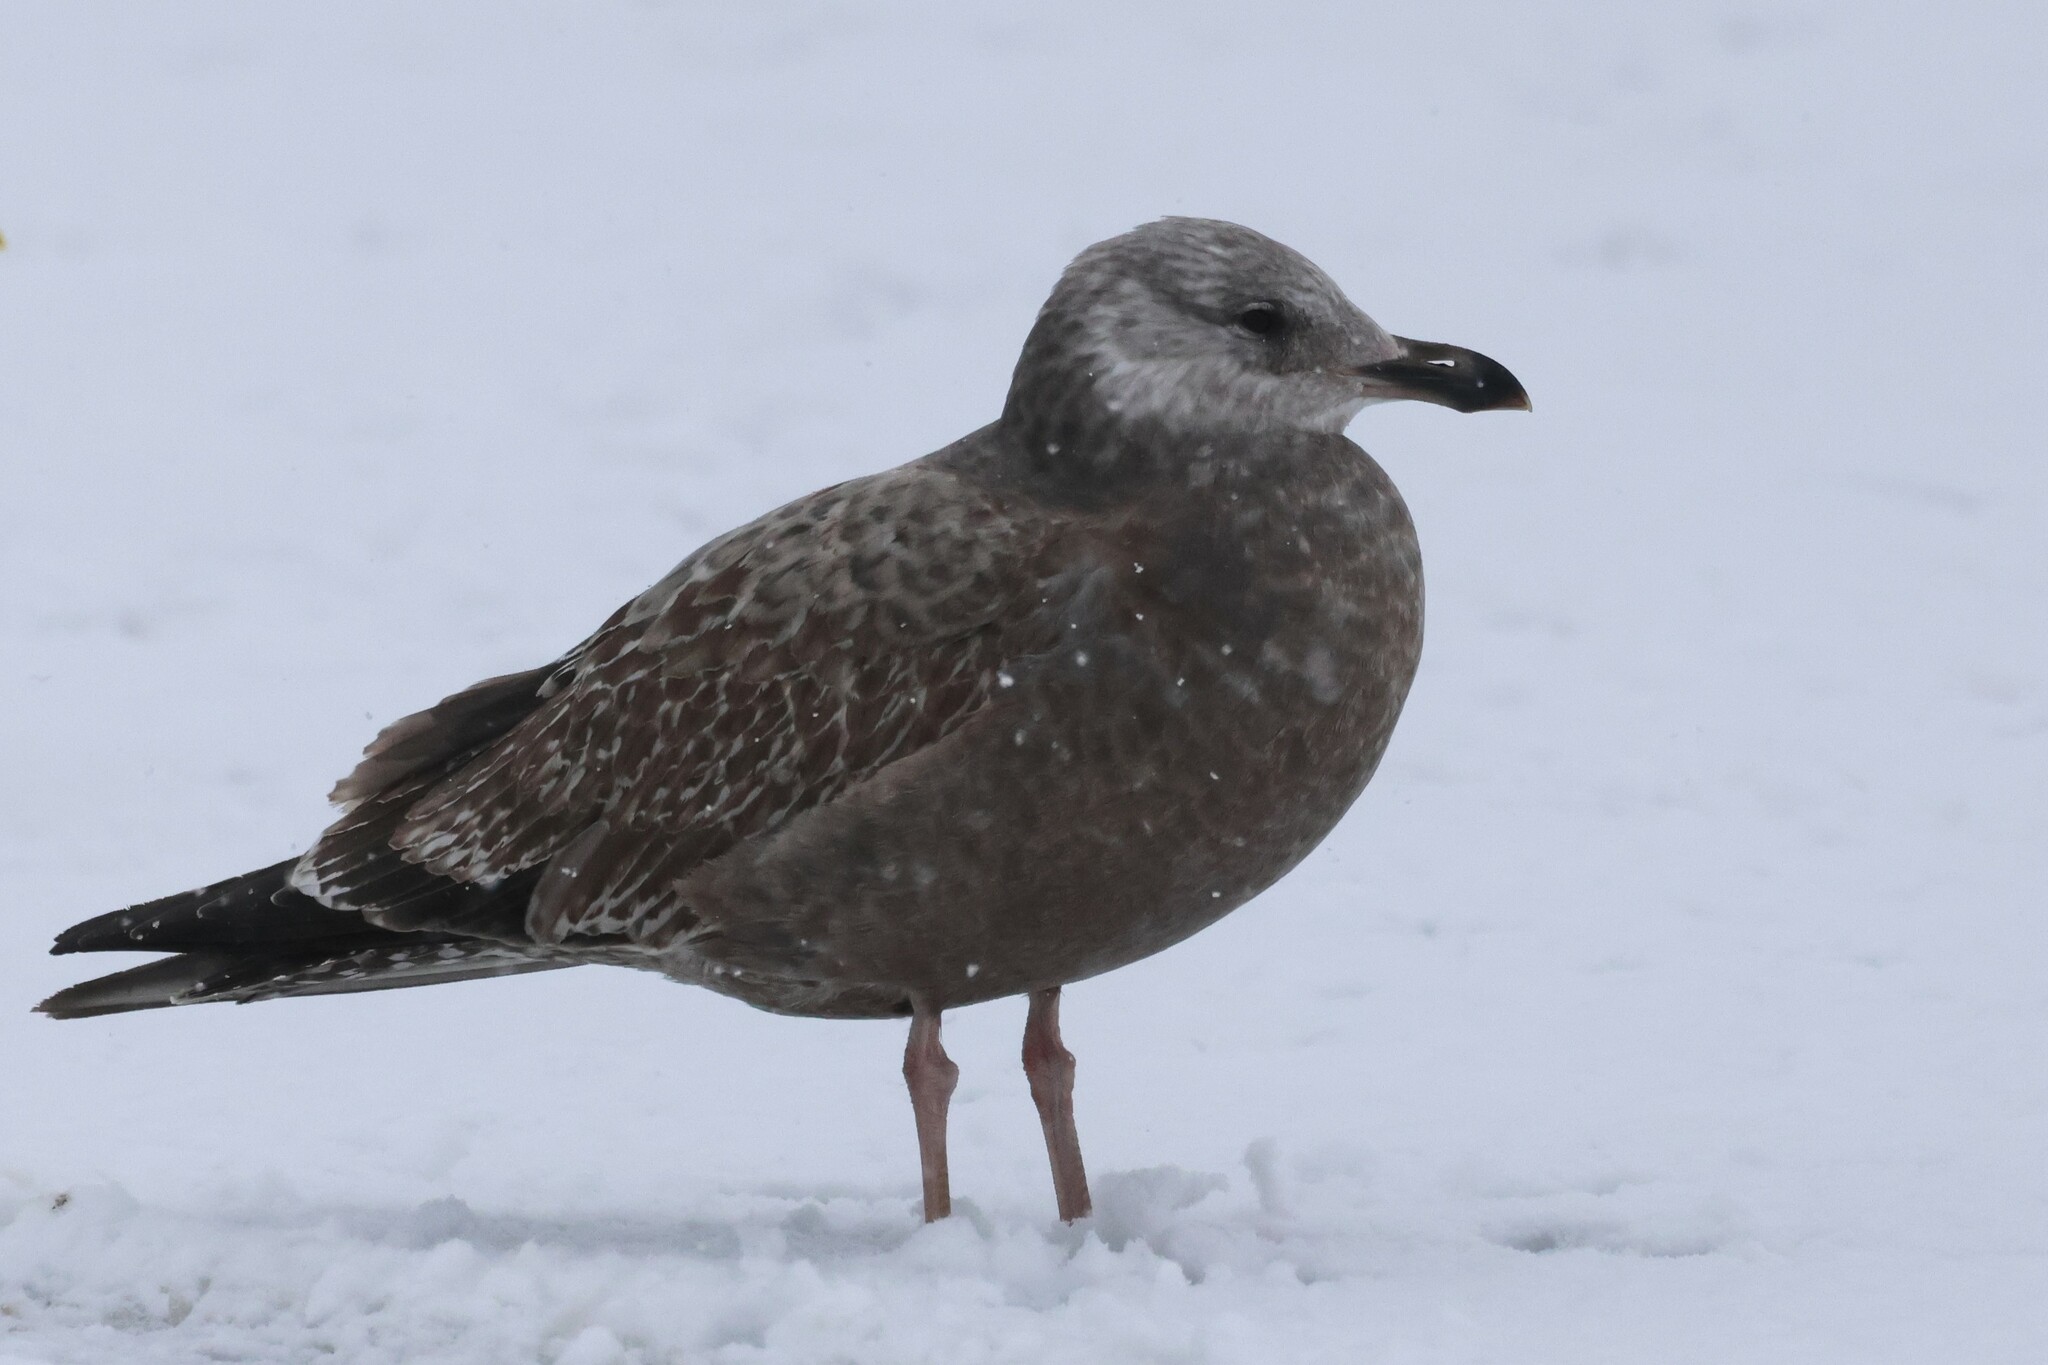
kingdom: Animalia
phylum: Chordata
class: Aves
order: Charadriiformes
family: Laridae
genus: Larus
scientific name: Larus argentatus
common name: Herring gull
